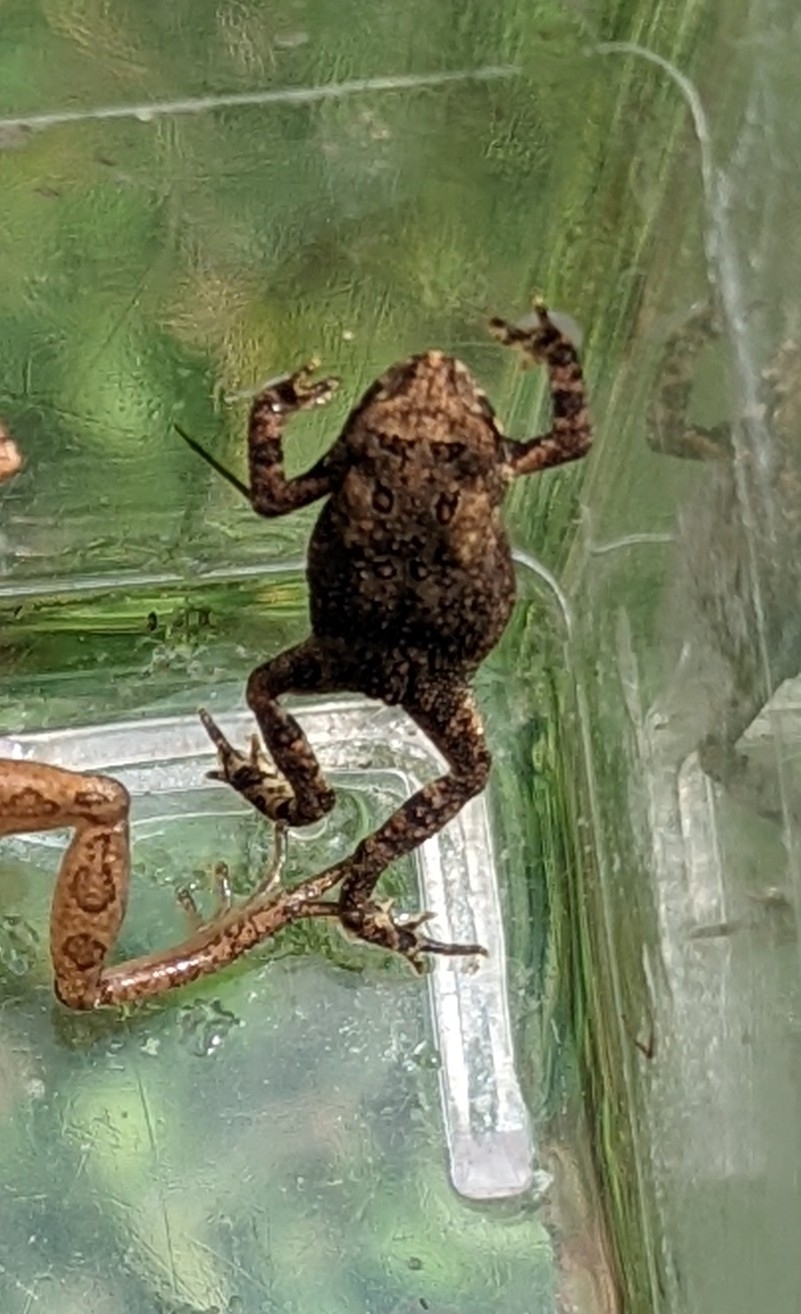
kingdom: Animalia
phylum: Chordata
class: Amphibia
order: Anura
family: Bufonidae
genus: Anaxyrus
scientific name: Anaxyrus americanus
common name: American toad
